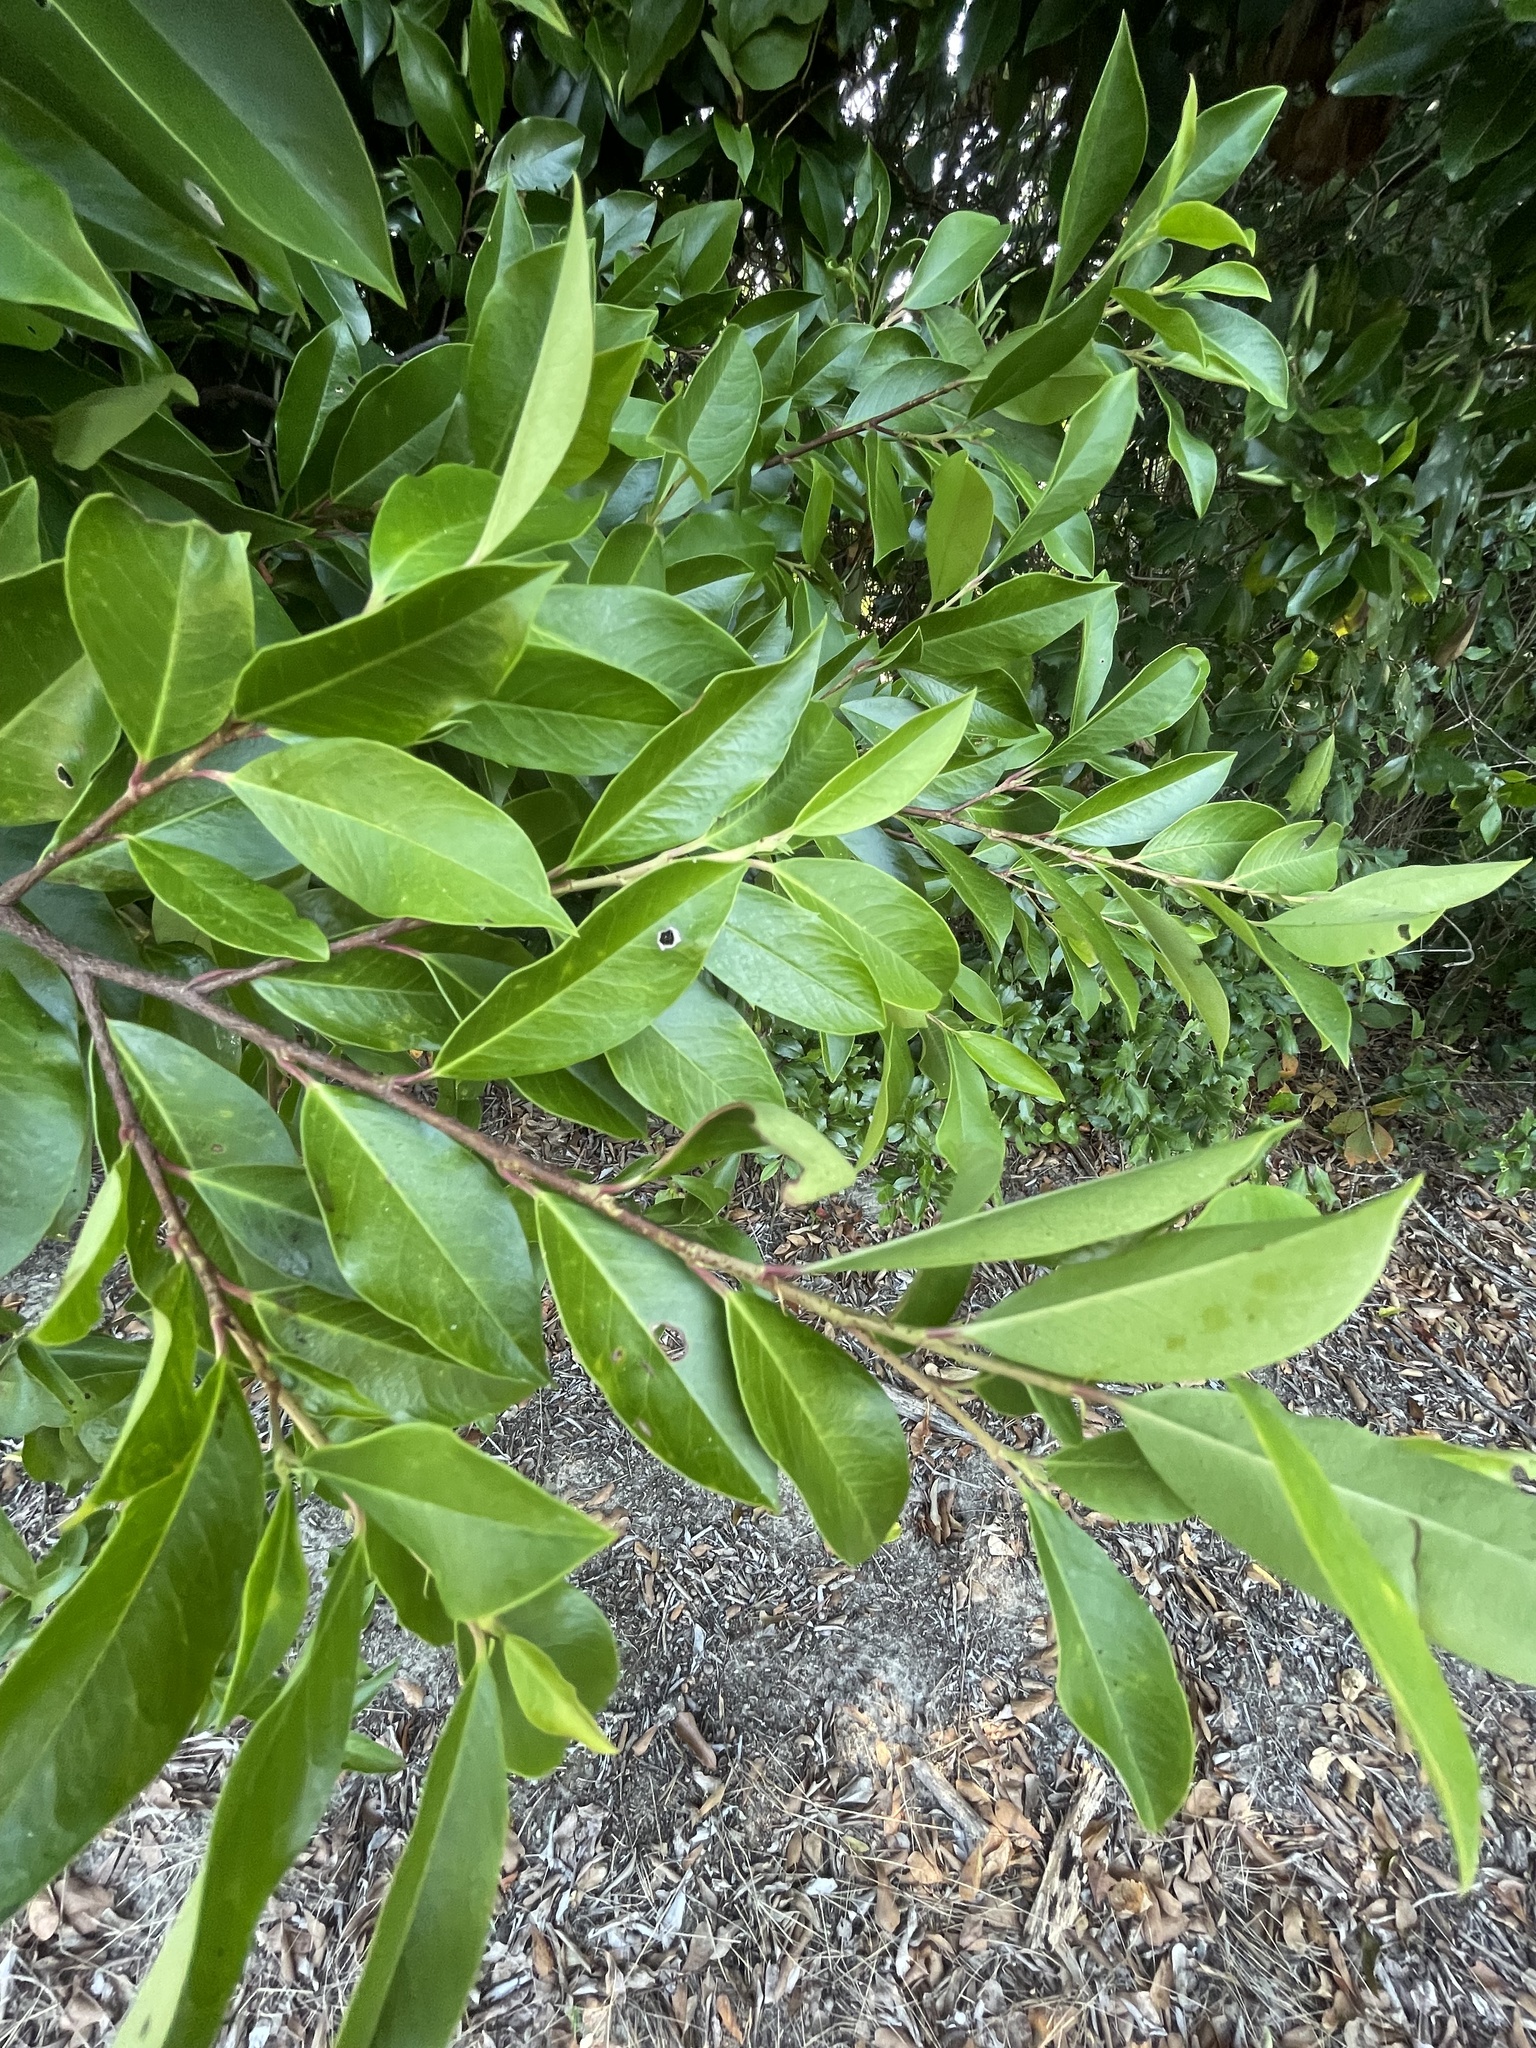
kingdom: Plantae
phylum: Tracheophyta
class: Magnoliopsida
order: Rosales
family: Rosaceae
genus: Prunus
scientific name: Prunus caroliniana
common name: Carolina laurel cherry
